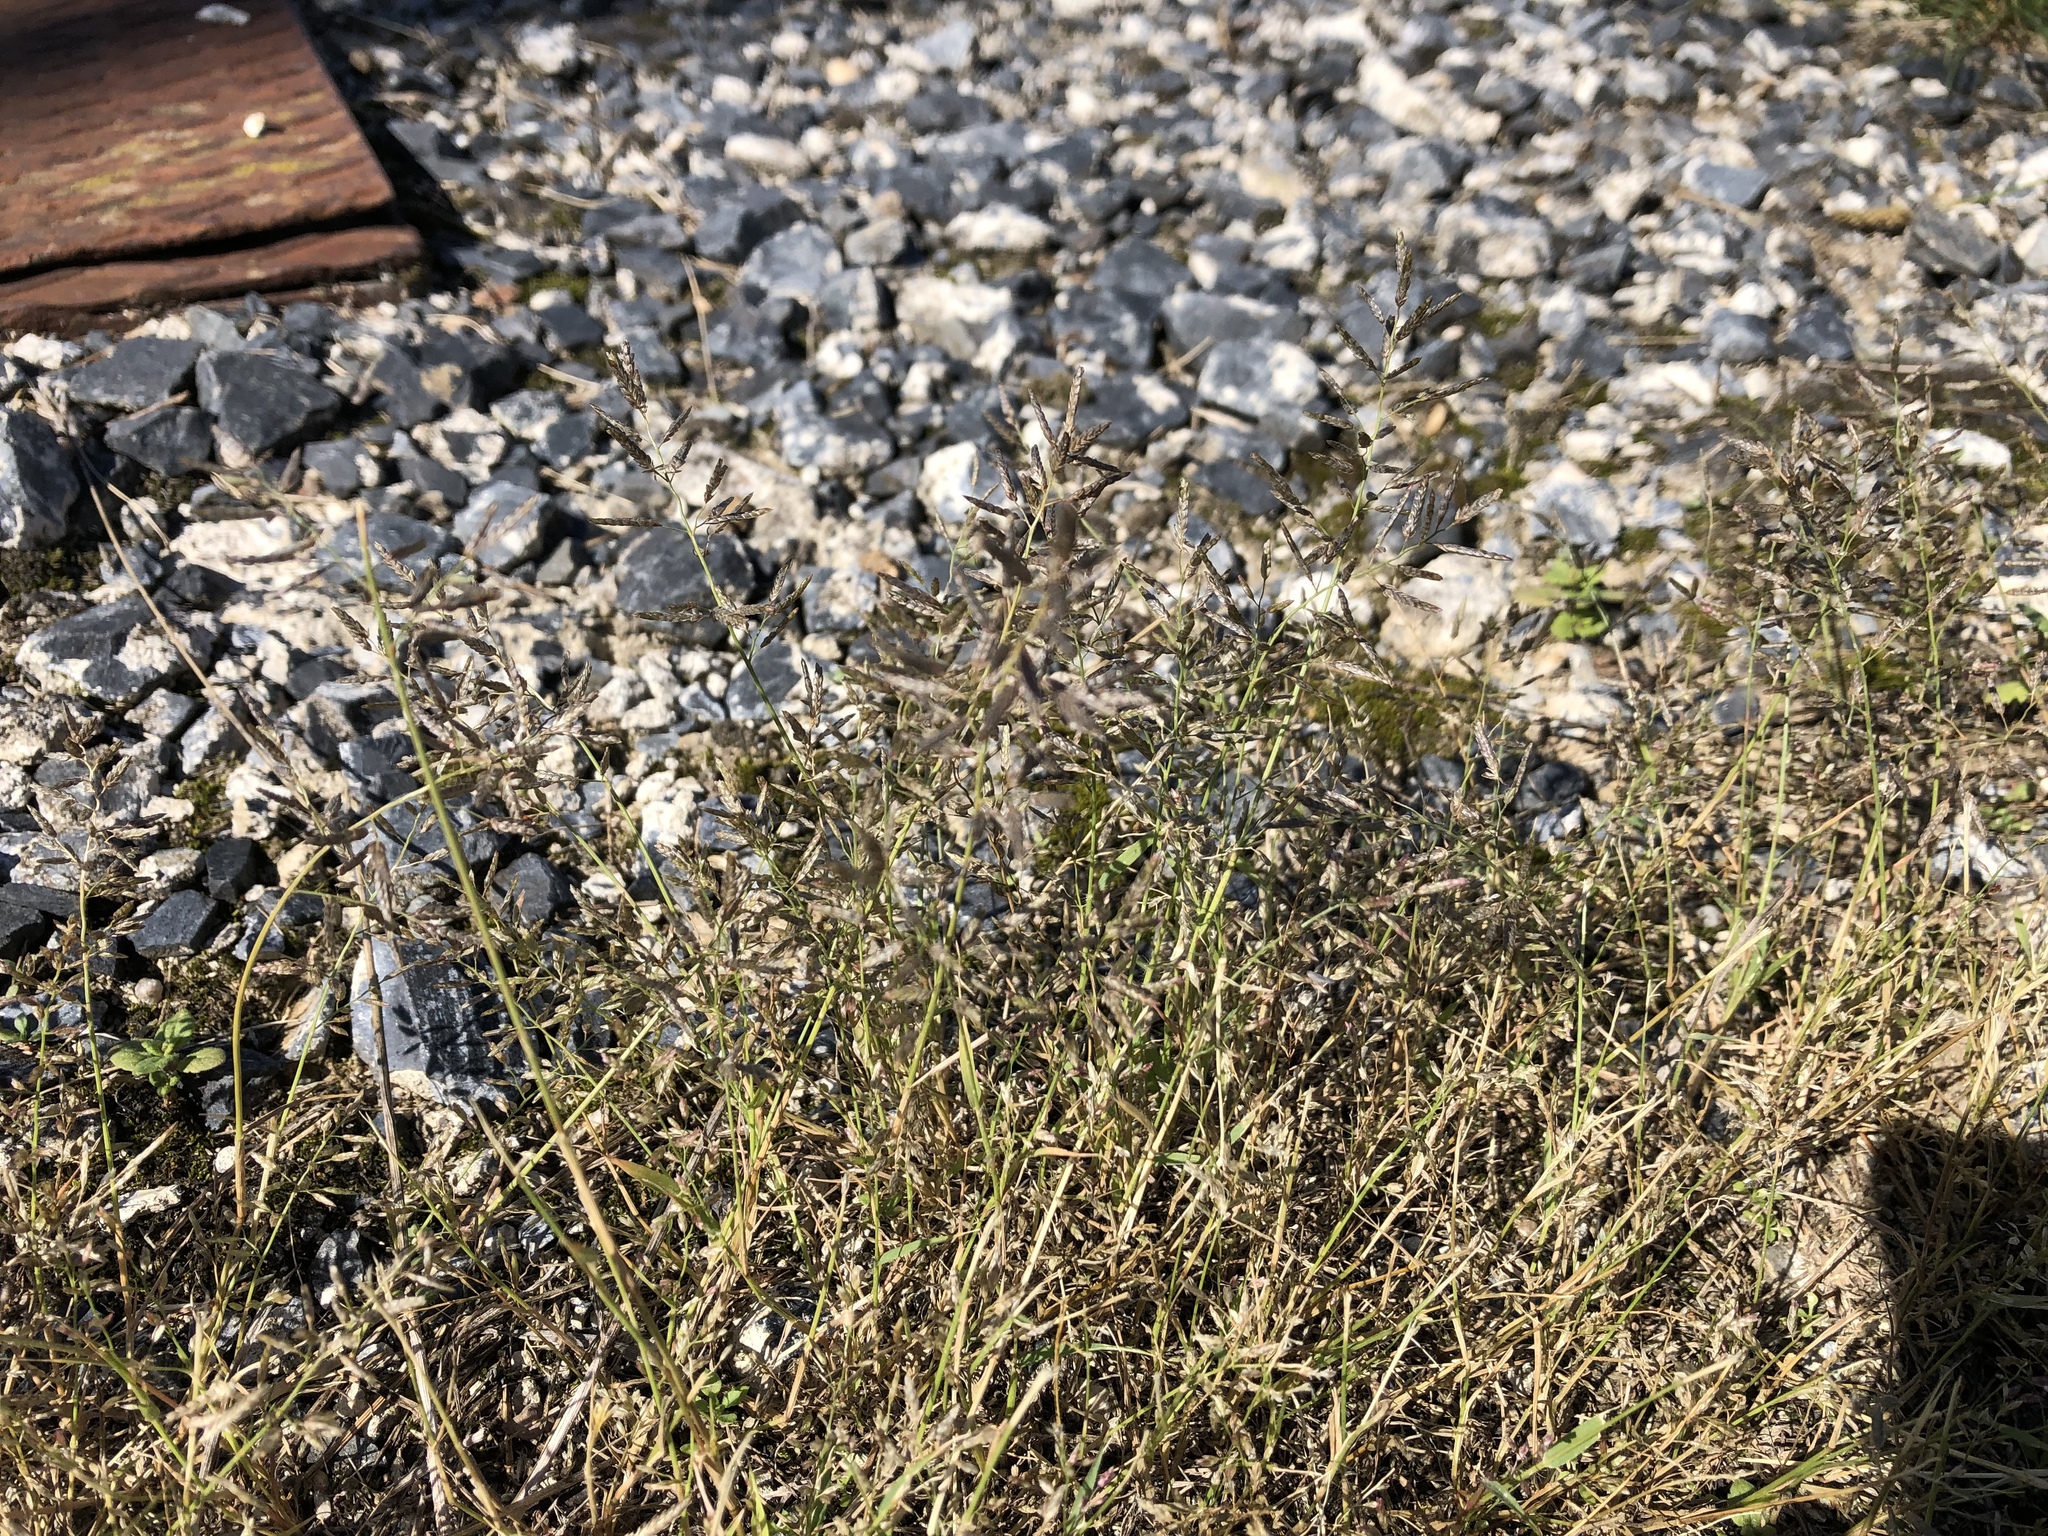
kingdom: Plantae
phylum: Tracheophyta
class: Liliopsida
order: Poales
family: Poaceae
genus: Eragrostis
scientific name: Eragrostis minor
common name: Small love-grass
